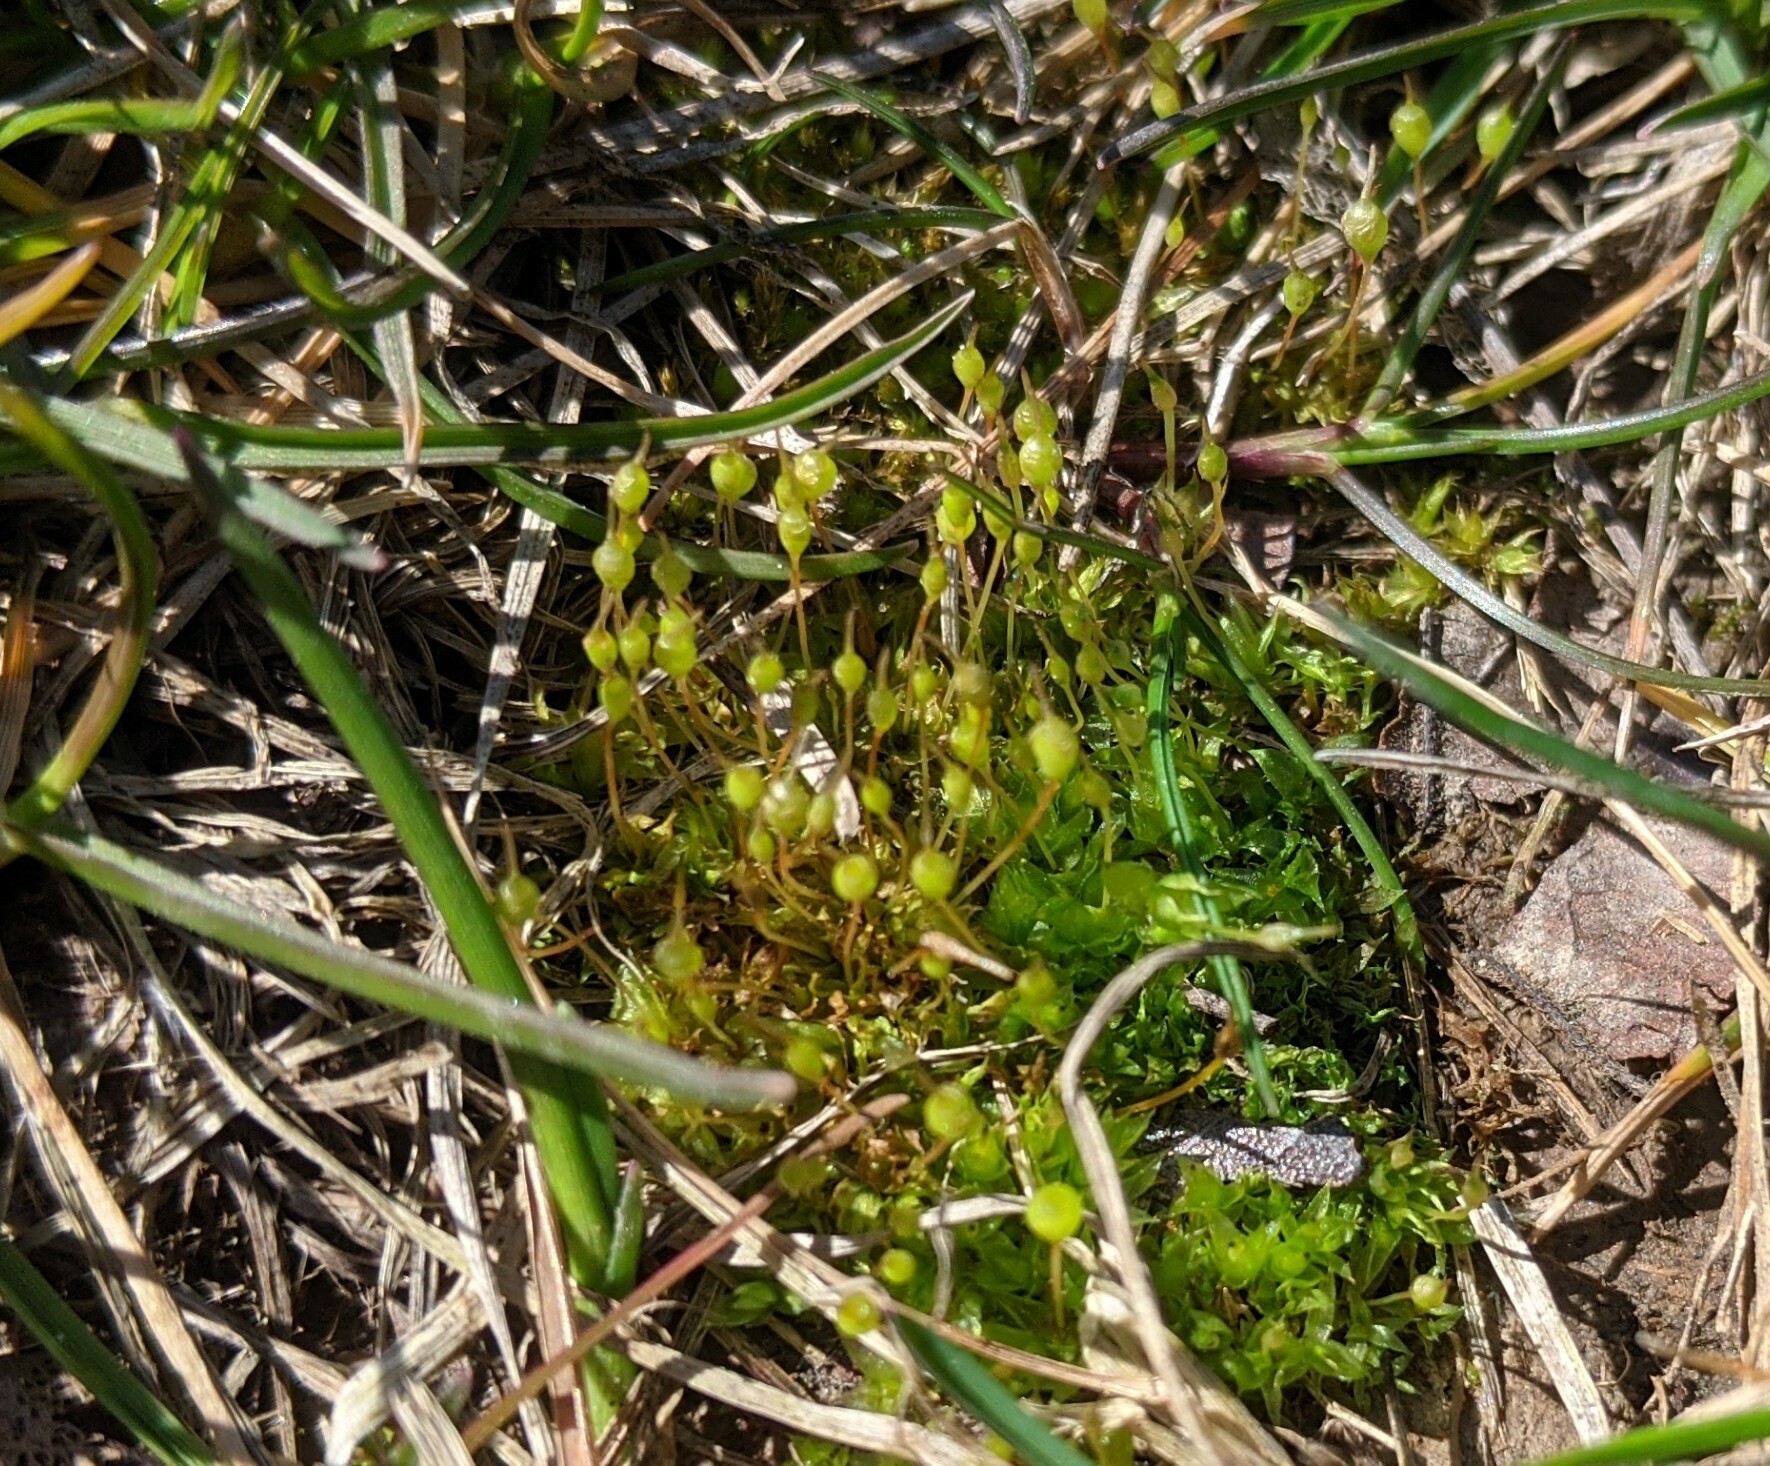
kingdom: Plantae
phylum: Bryophyta
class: Bryopsida
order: Funariales
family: Funariaceae
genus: Physcomitrium
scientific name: Physcomitrium pyriforme
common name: Common bladder-moss
